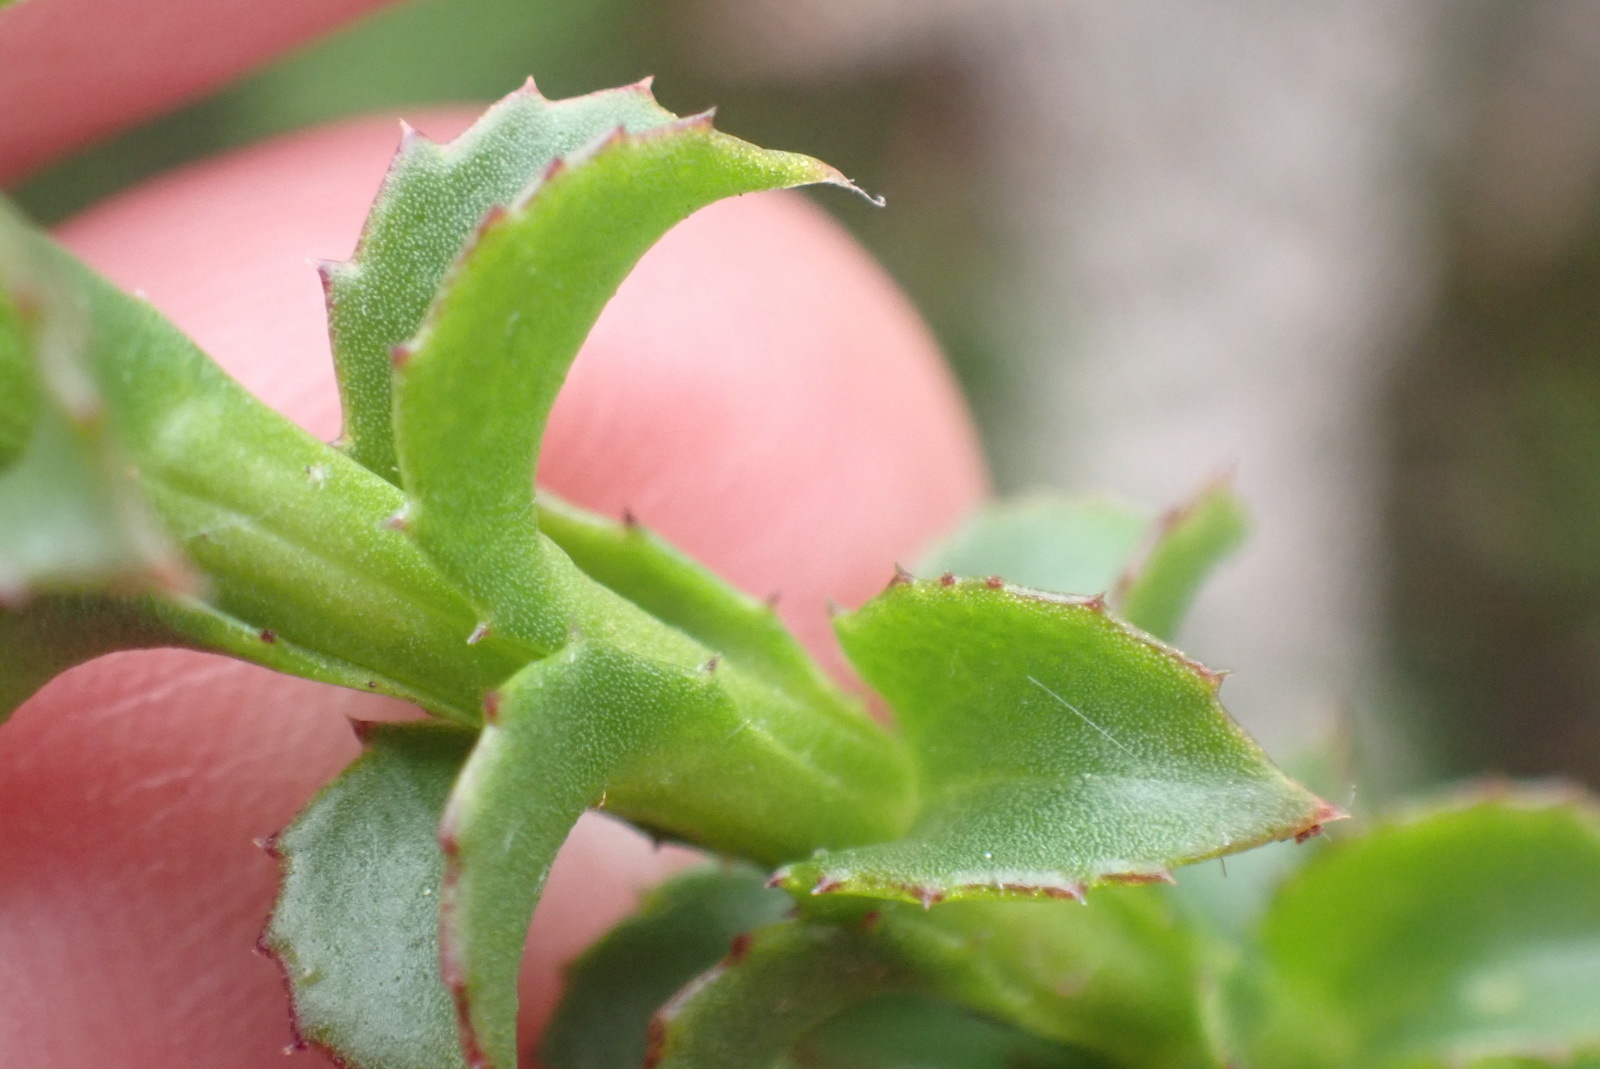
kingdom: Plantae
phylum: Tracheophyta
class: Magnoliopsida
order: Asterales
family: Asteraceae
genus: Athanasia
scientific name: Athanasia dentata
